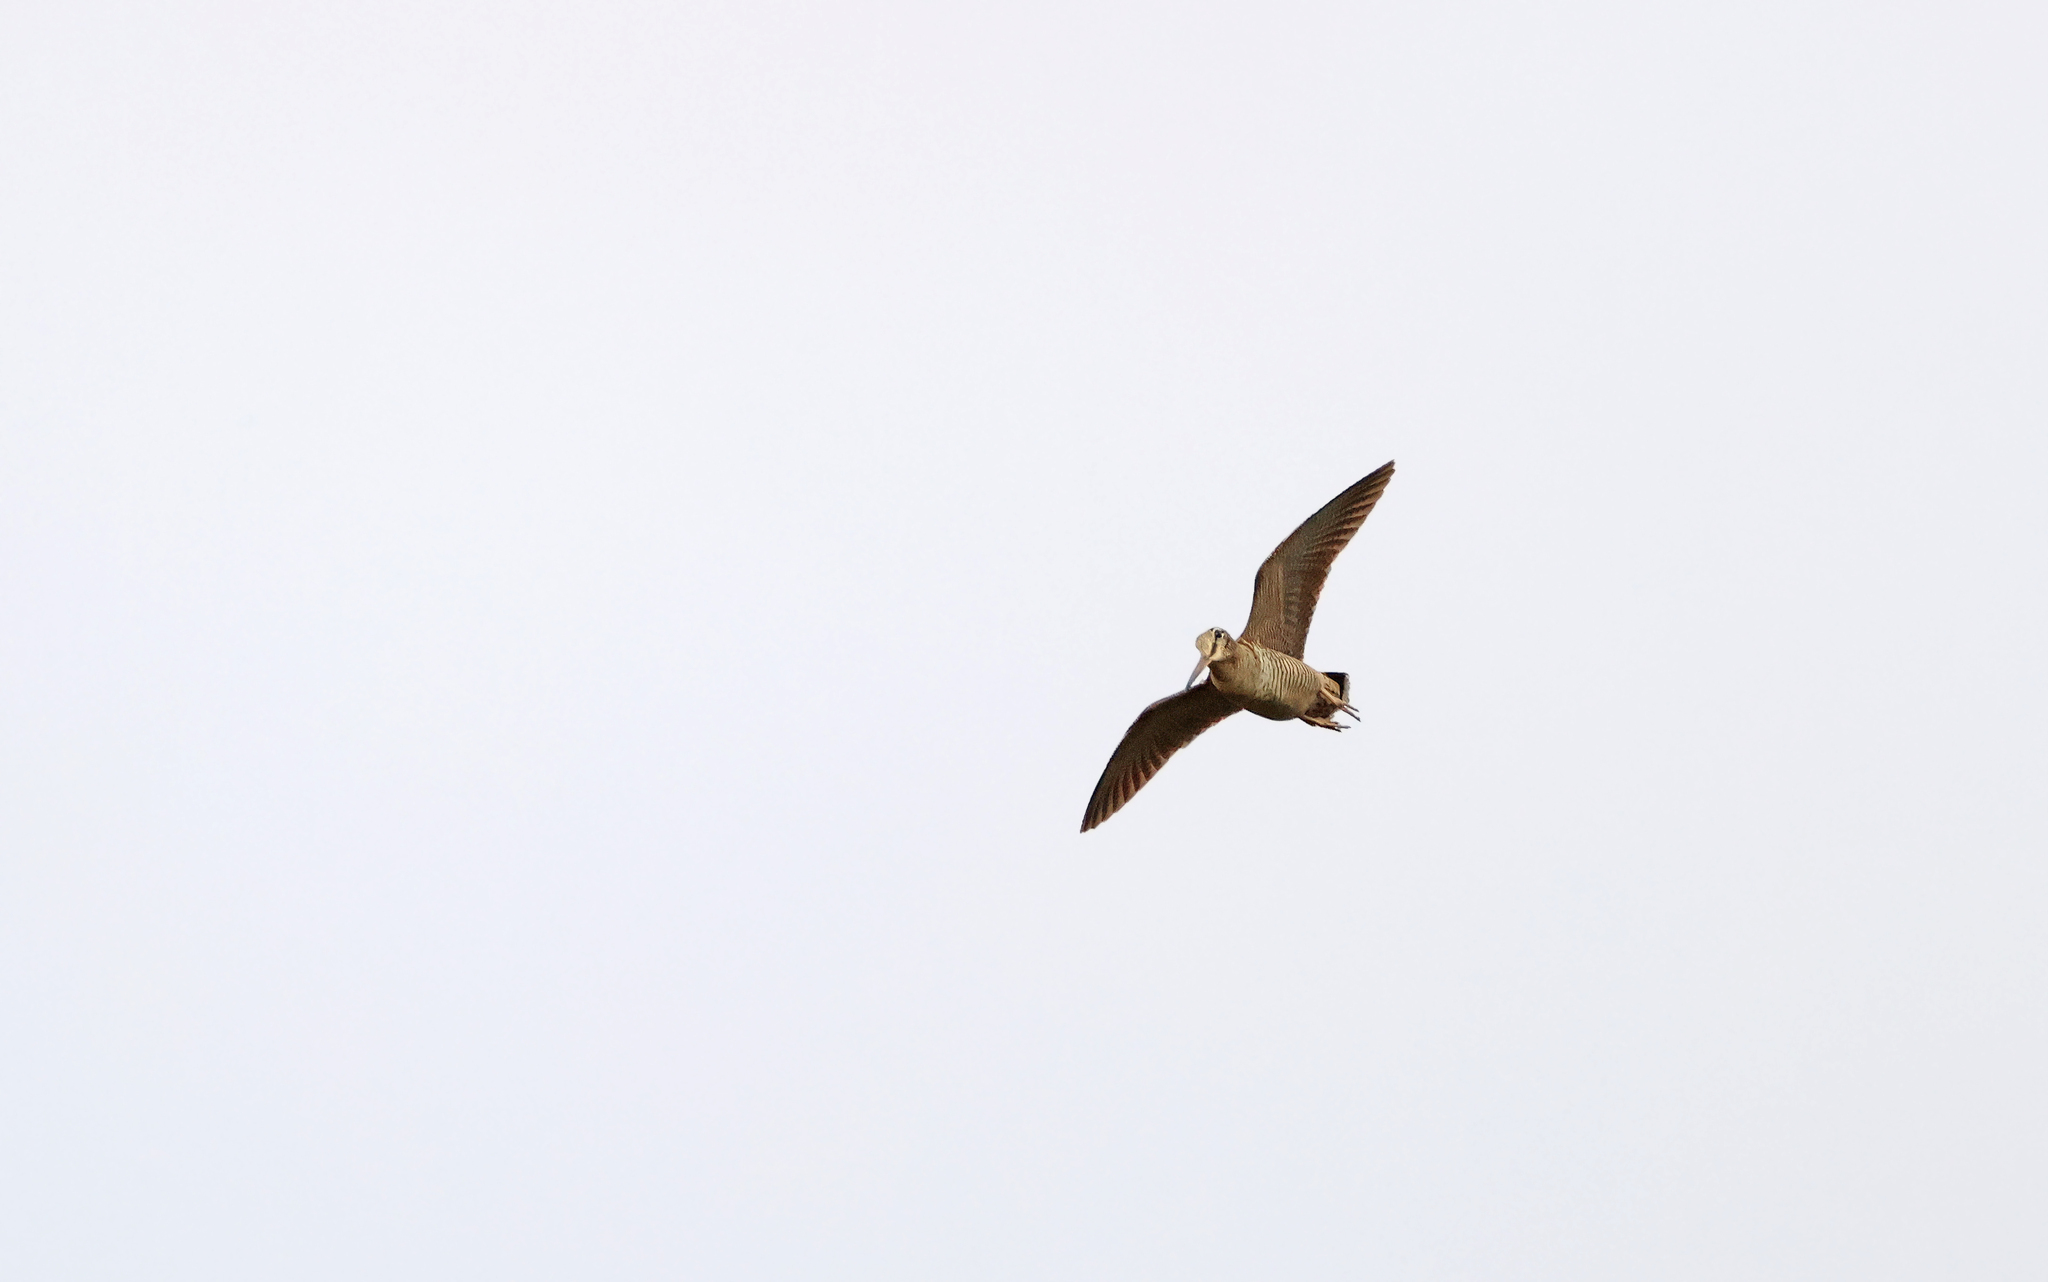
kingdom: Animalia
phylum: Chordata
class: Aves
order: Charadriiformes
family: Scolopacidae
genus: Scolopax
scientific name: Scolopax rusticola
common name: Eurasian woodcock
